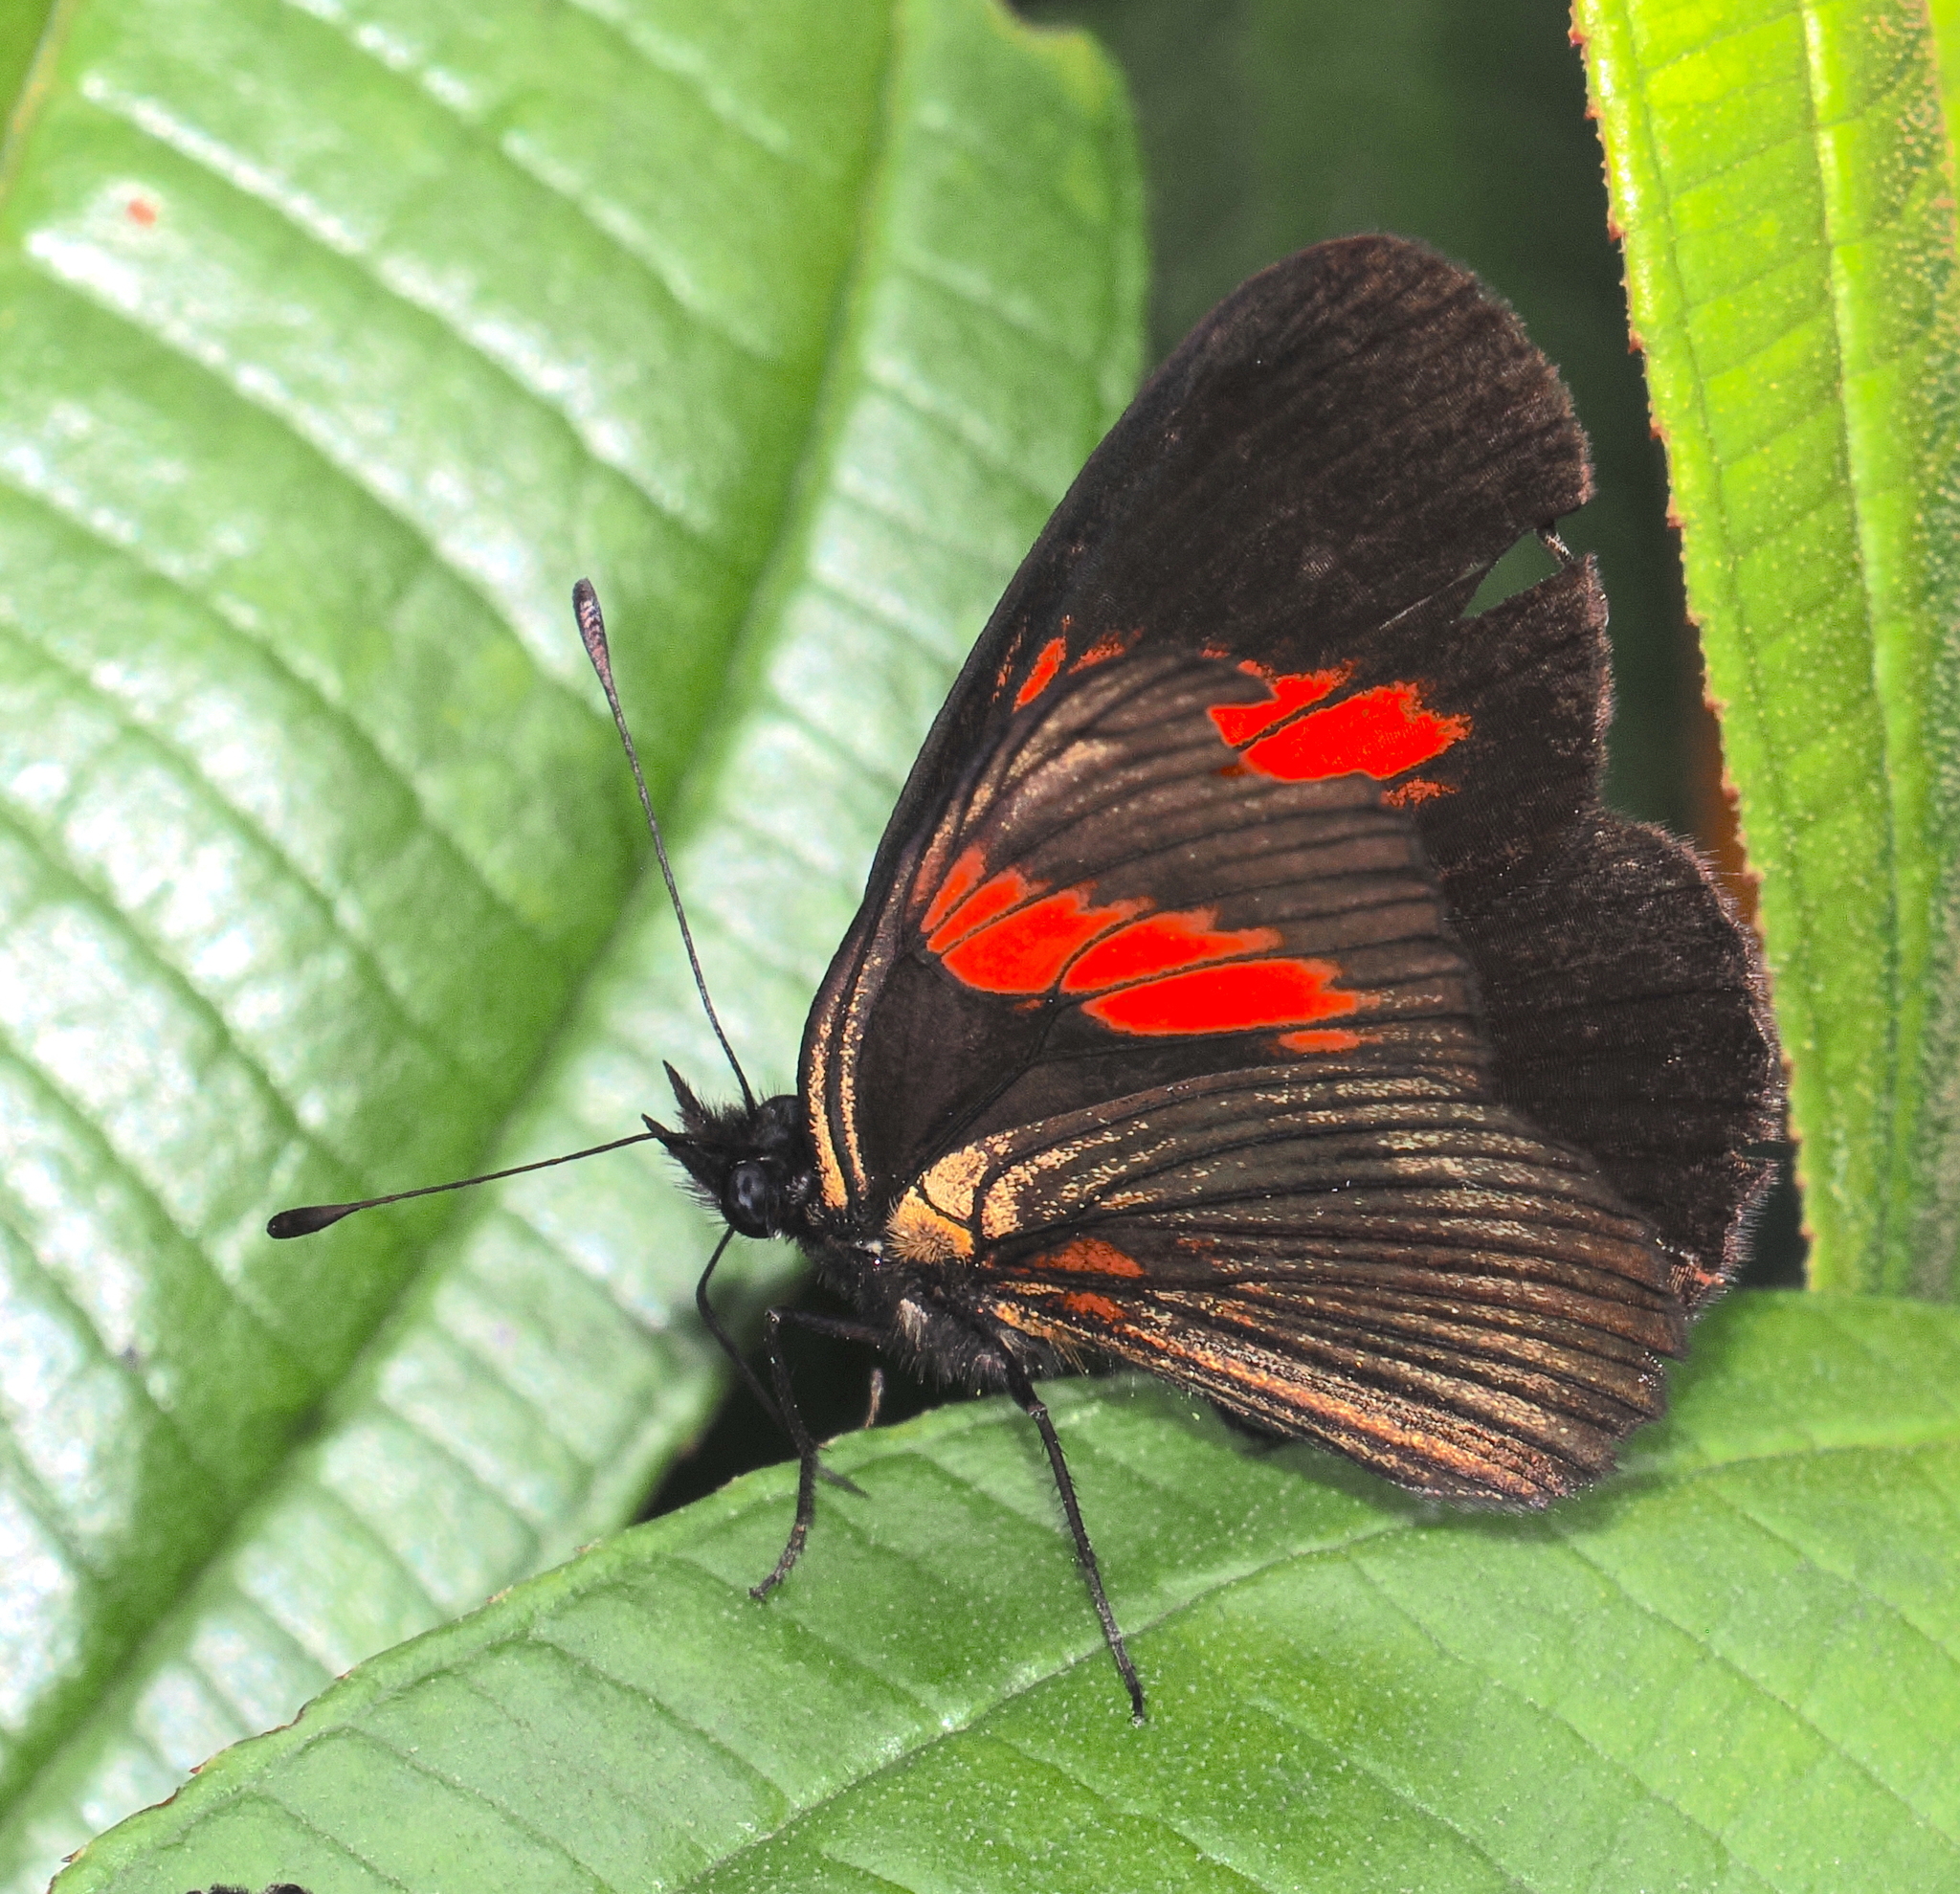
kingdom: Animalia
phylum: Arthropoda
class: Insecta
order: Lepidoptera
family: Nymphalidae
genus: Castilia
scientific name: Castilia castilla
